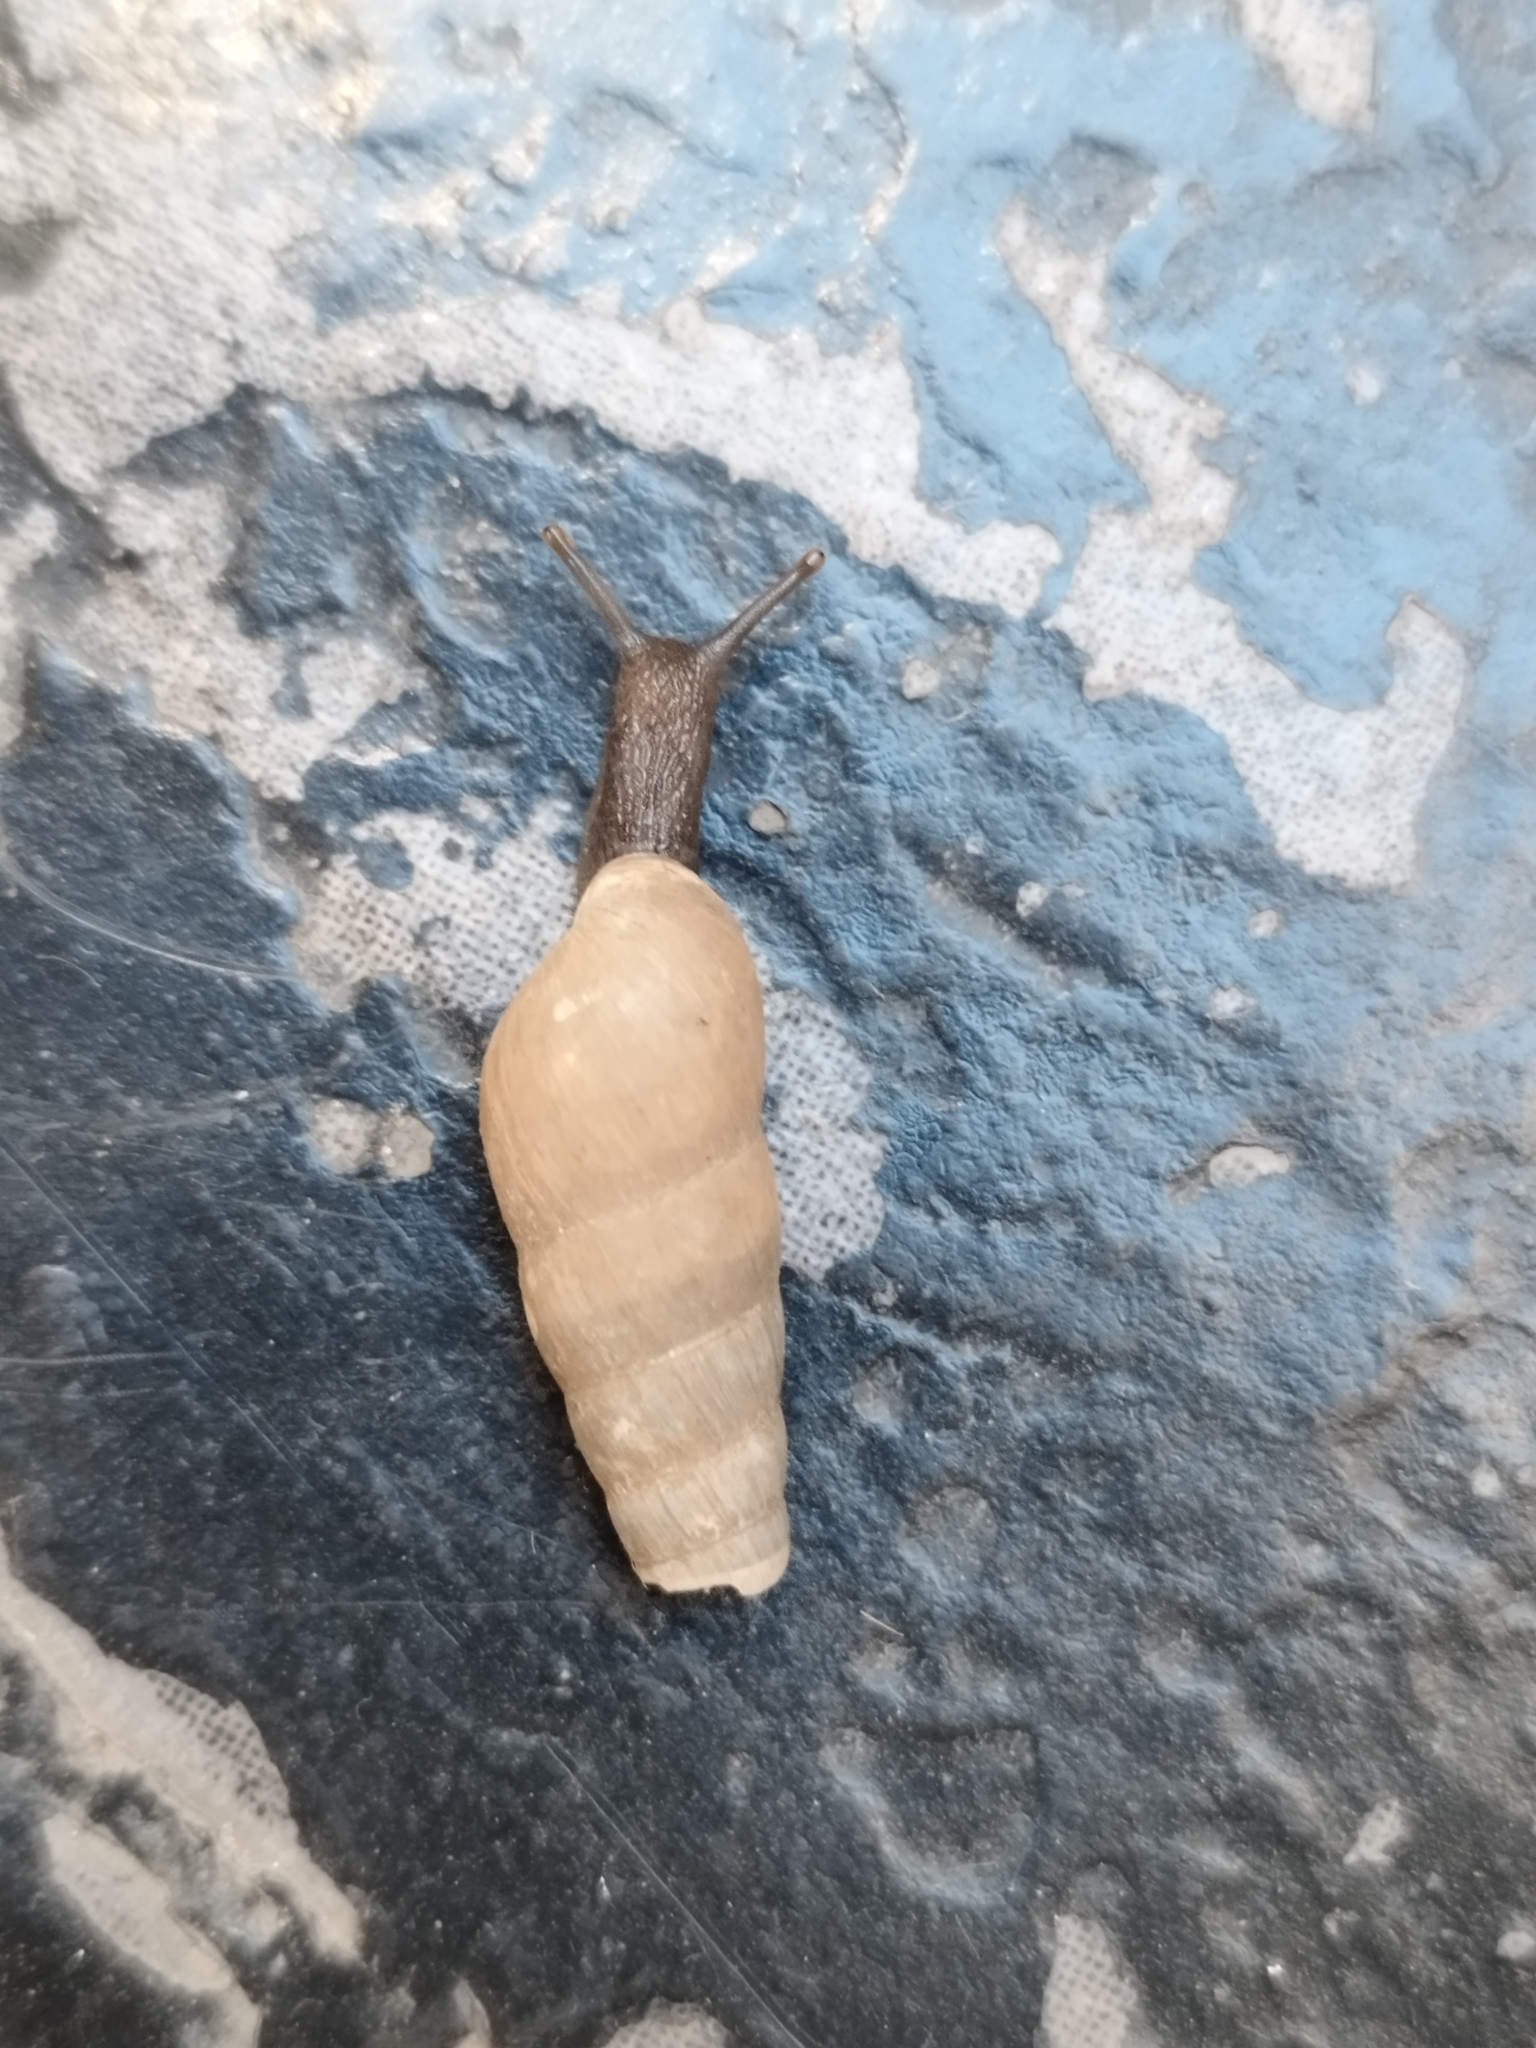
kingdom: Animalia
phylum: Mollusca
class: Gastropoda
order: Stylommatophora
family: Achatinidae
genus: Rumina
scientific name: Rumina decollata
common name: Decollate snail
